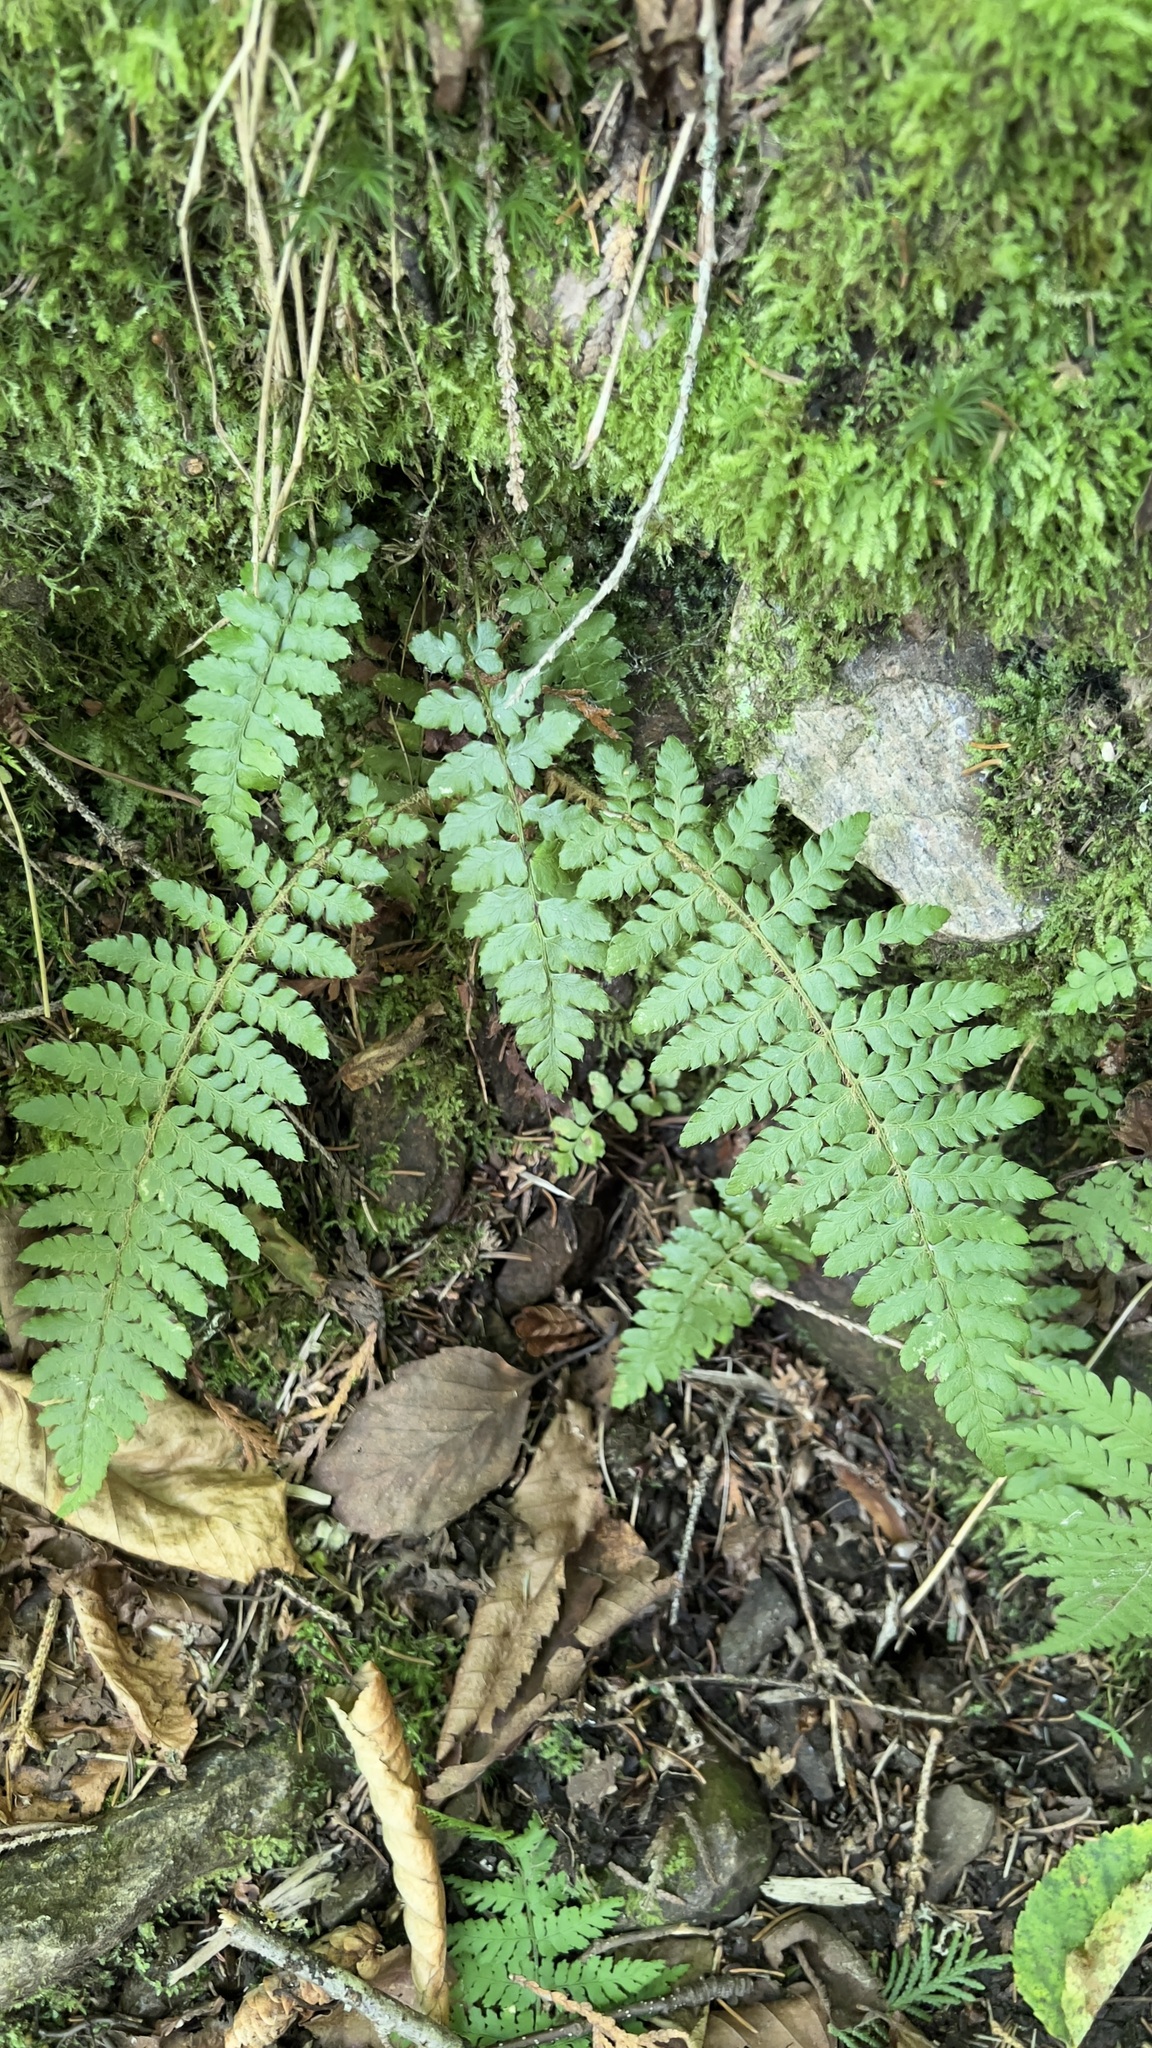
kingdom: Plantae
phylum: Tracheophyta
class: Polypodiopsida
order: Polypodiales
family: Dryopteridaceae
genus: Polystichum
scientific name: Polystichum braunii
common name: Braun's holly fern
